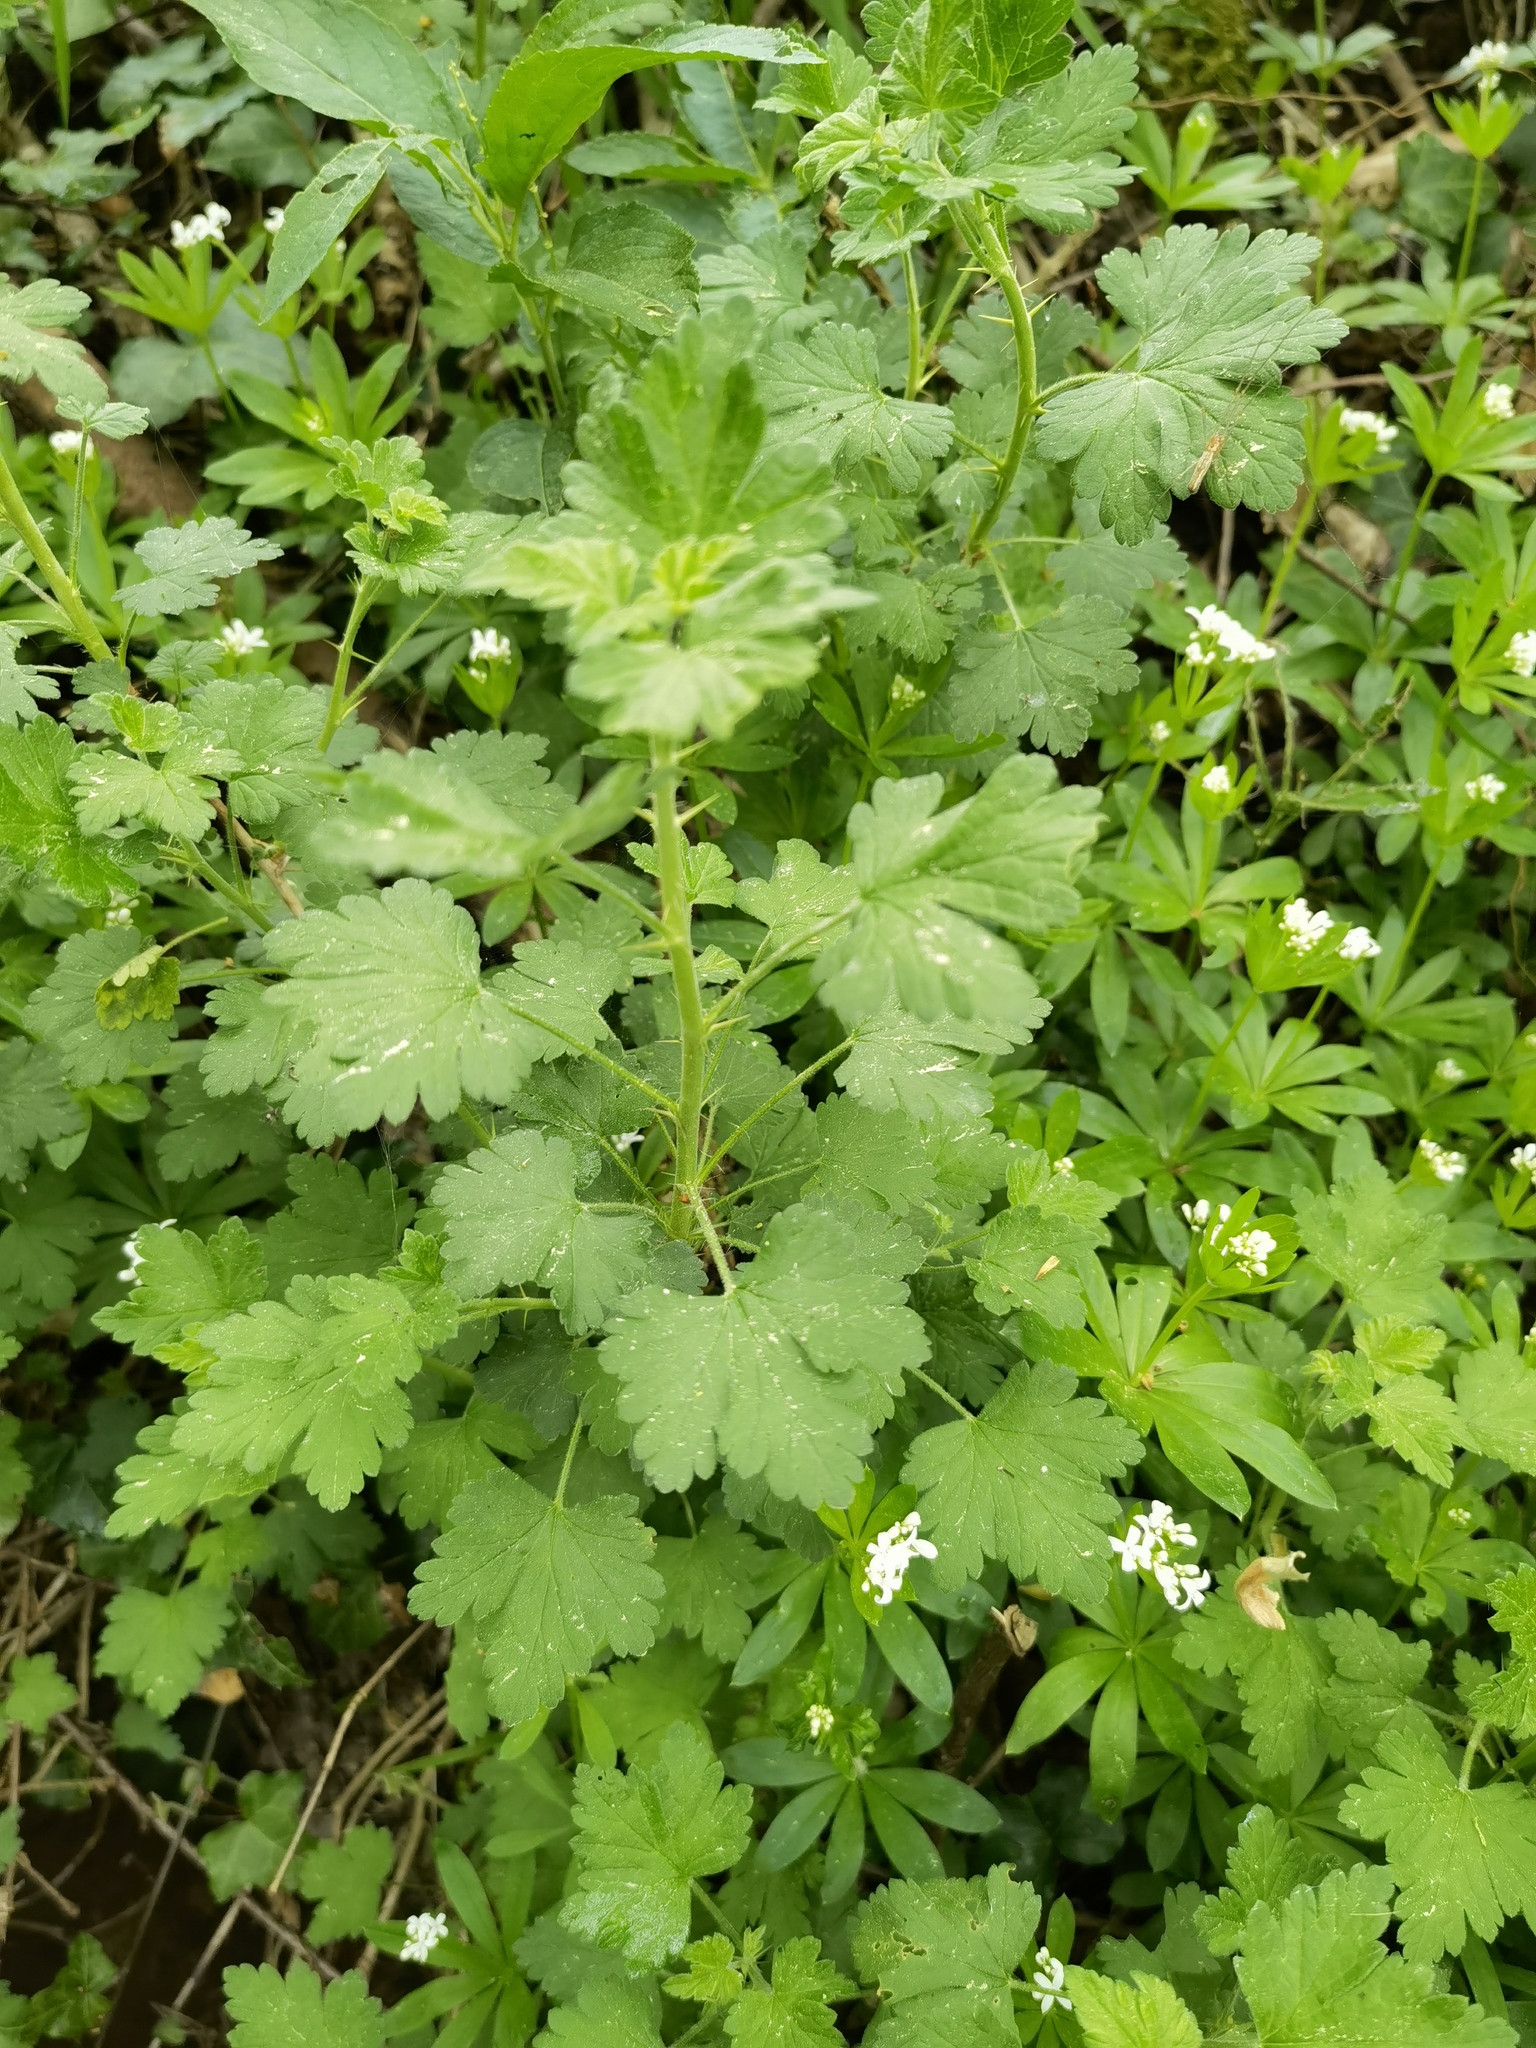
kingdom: Plantae
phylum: Tracheophyta
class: Magnoliopsida
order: Saxifragales
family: Grossulariaceae
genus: Ribes
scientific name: Ribes uva-crispa
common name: Gooseberry
